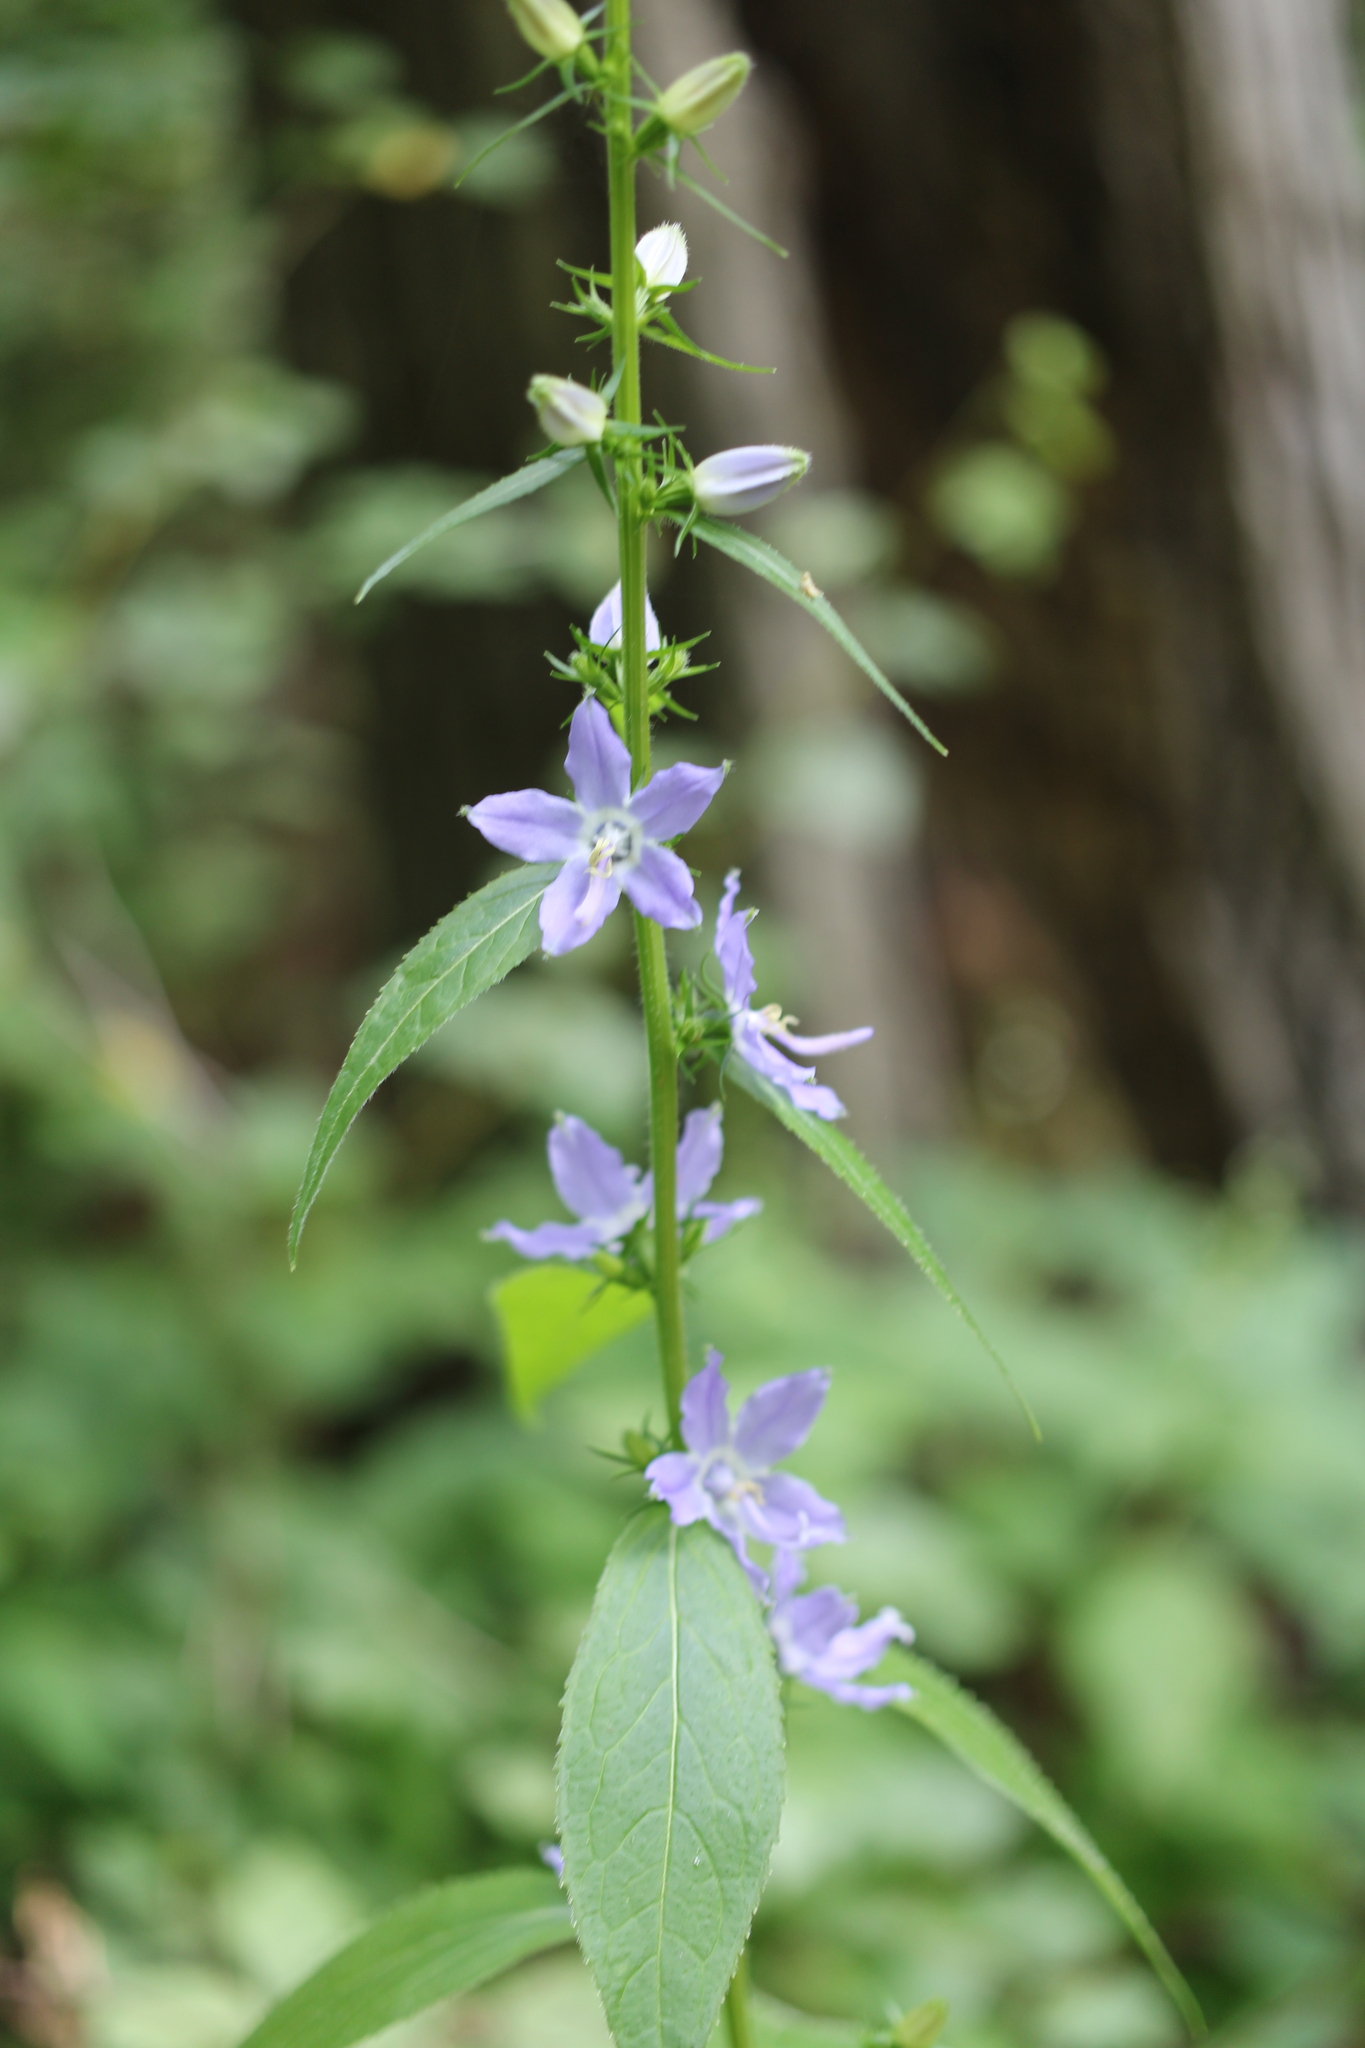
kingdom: Plantae
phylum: Tracheophyta
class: Magnoliopsida
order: Asterales
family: Campanulaceae
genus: Campanulastrum
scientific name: Campanulastrum americanum
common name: American bellflower
